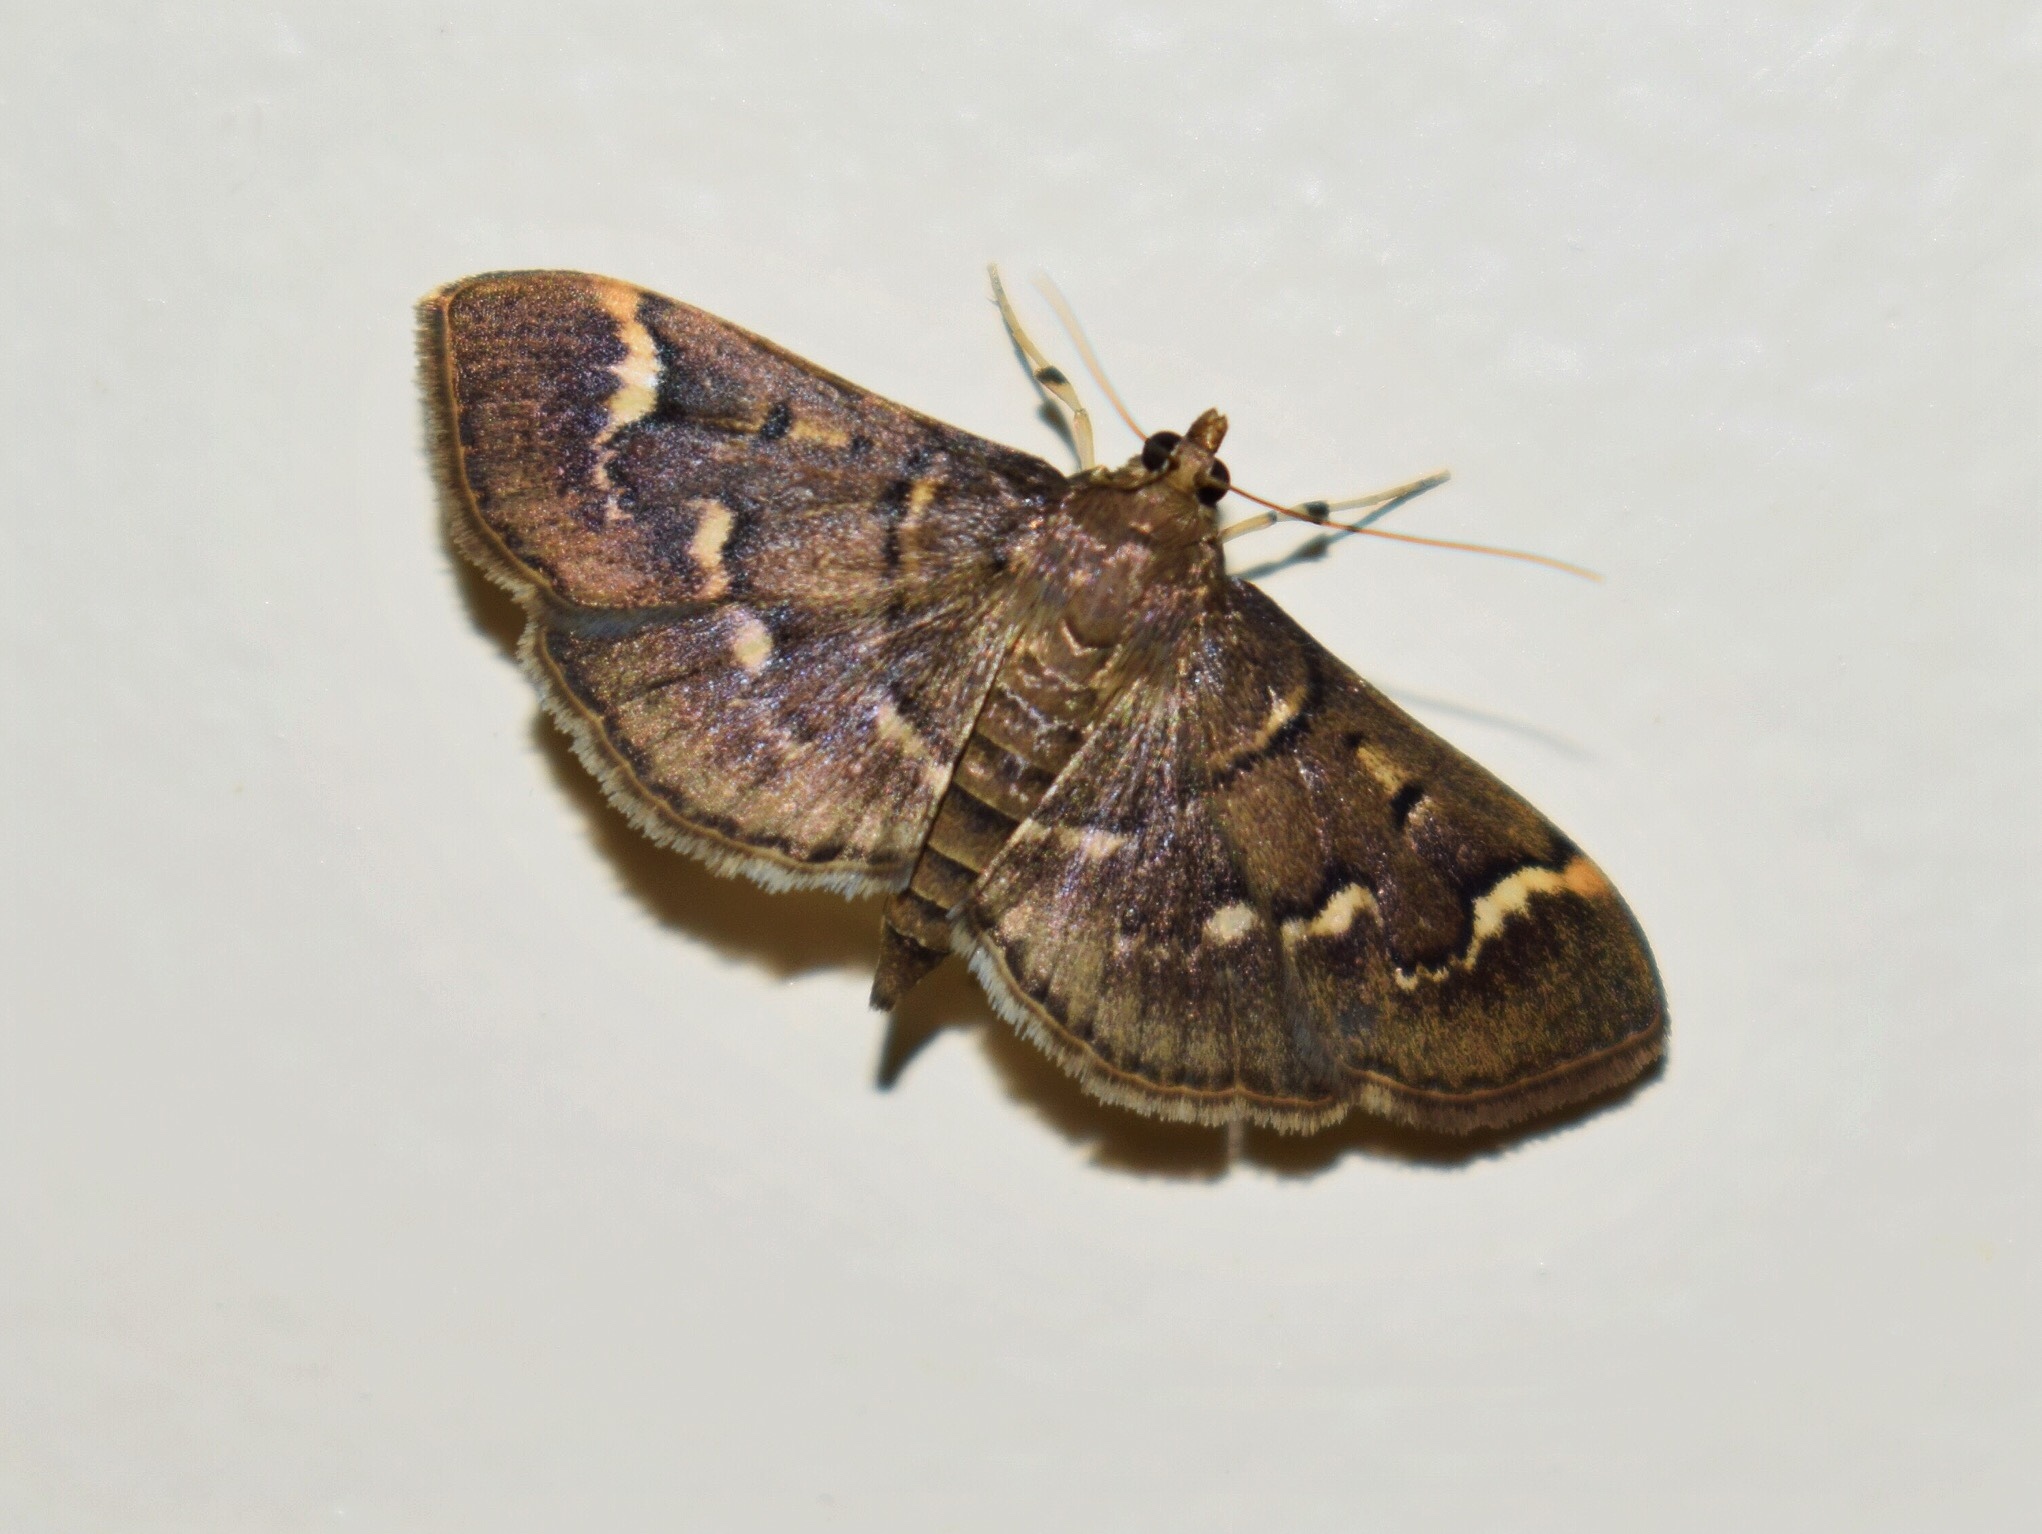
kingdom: Animalia
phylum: Arthropoda
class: Insecta
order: Lepidoptera
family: Crambidae
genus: Syllepte
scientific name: Syllepte orbiferalis
